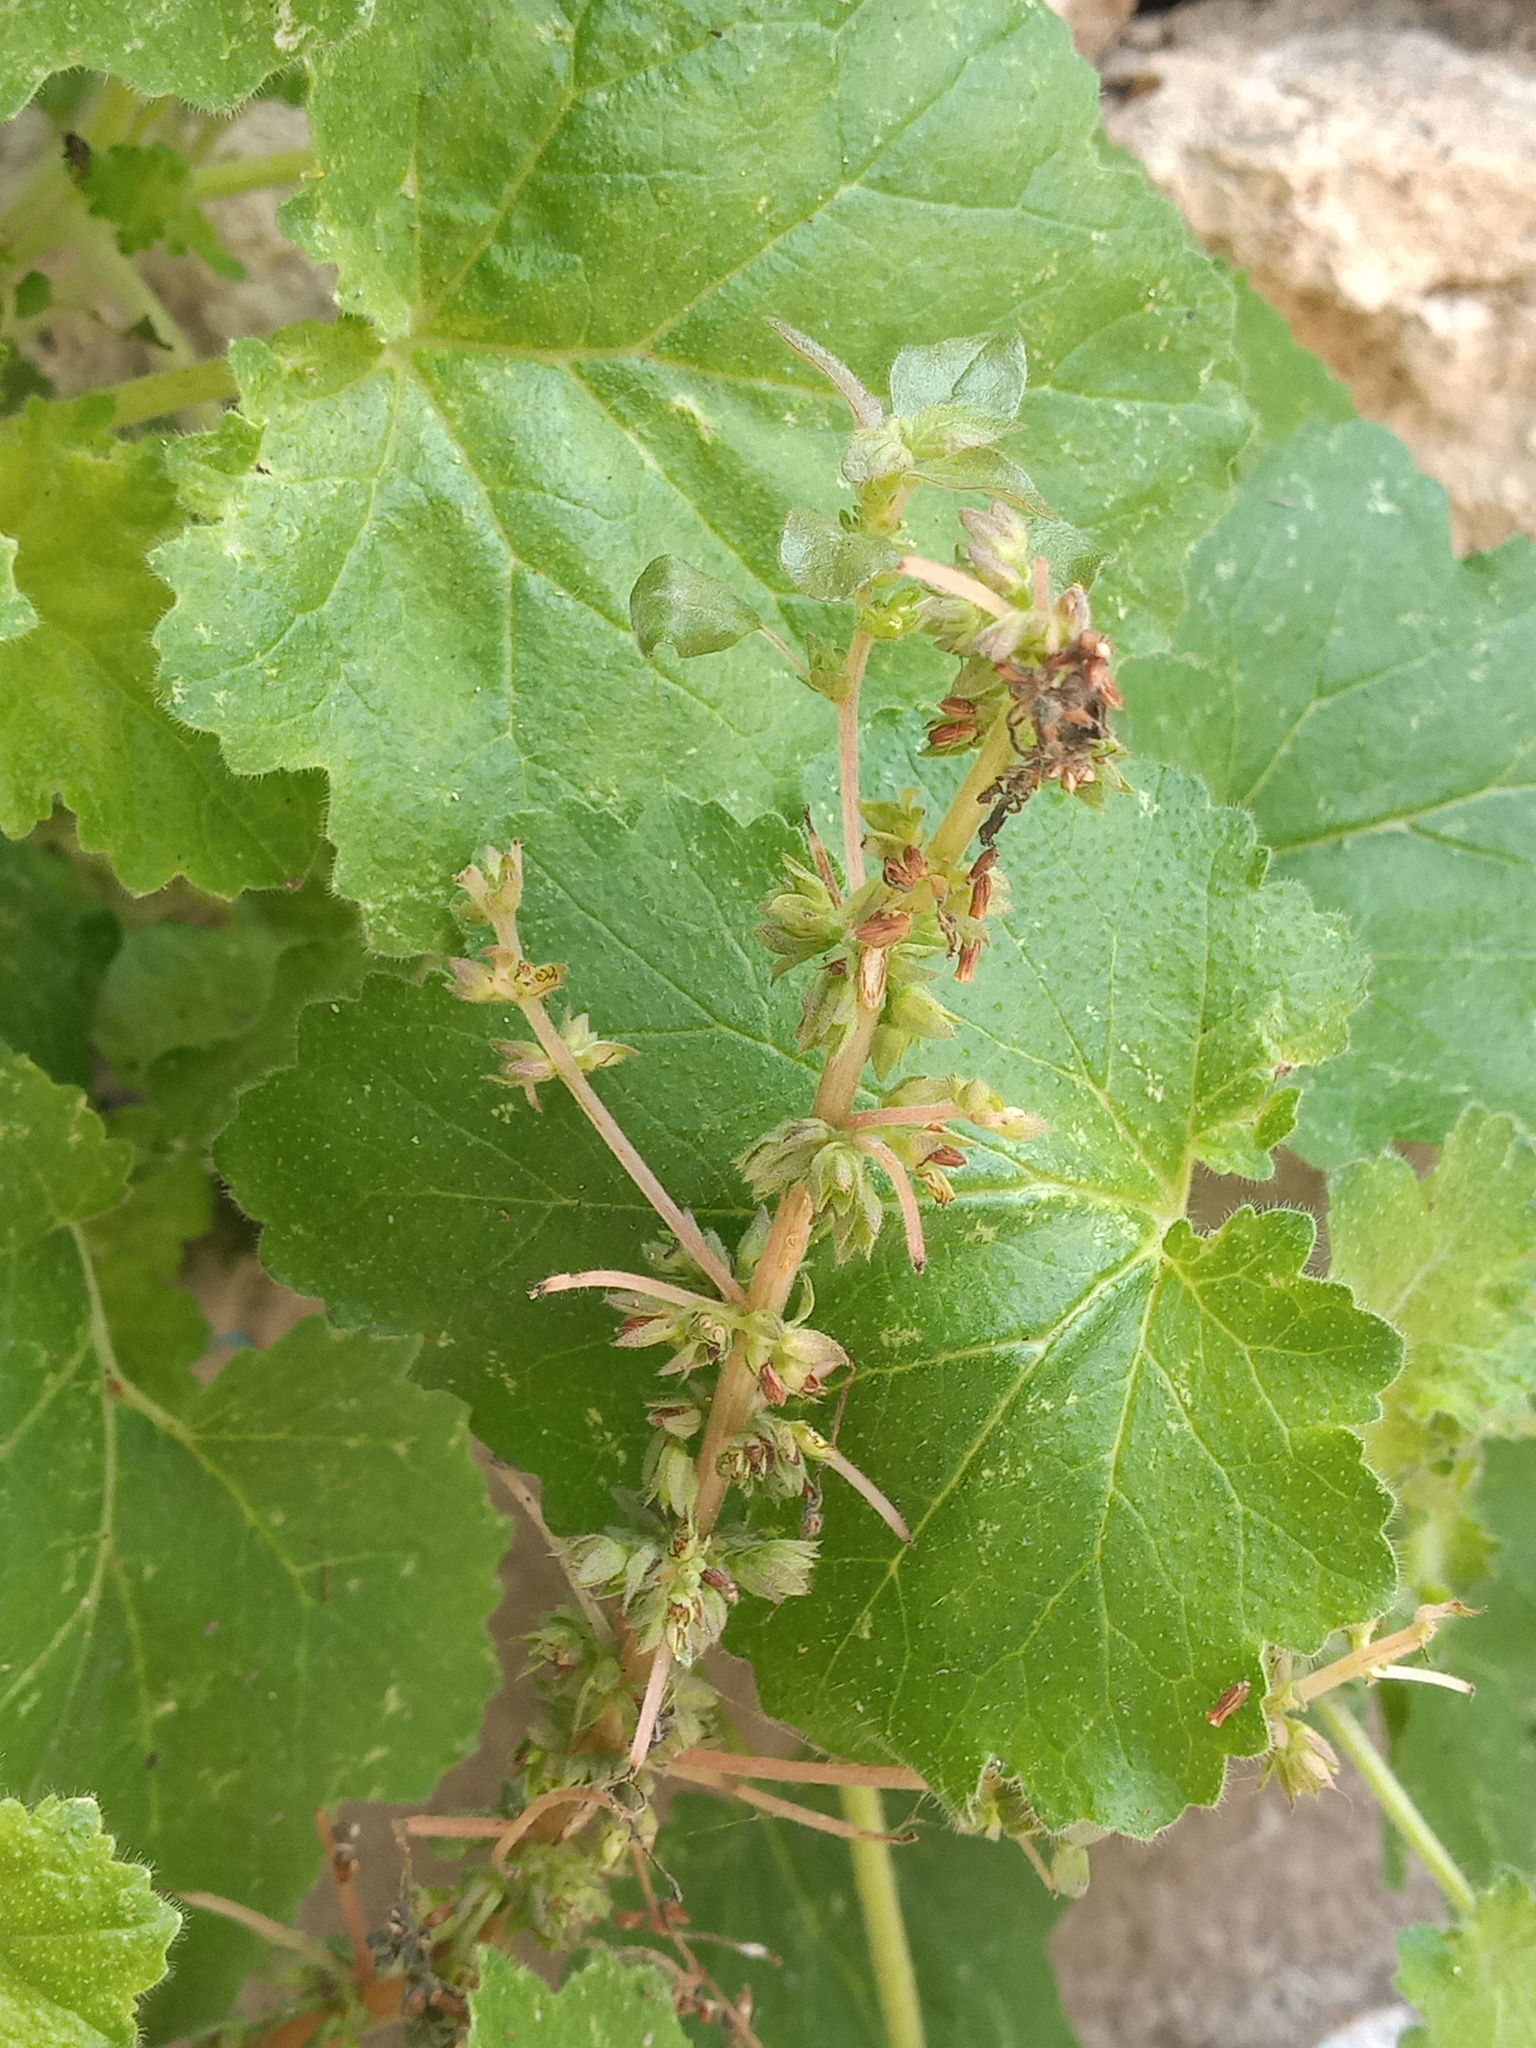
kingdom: Plantae
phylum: Tracheophyta
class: Magnoliopsida
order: Cornales
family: Loasaceae
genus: Eucnide
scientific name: Eucnide lobata
